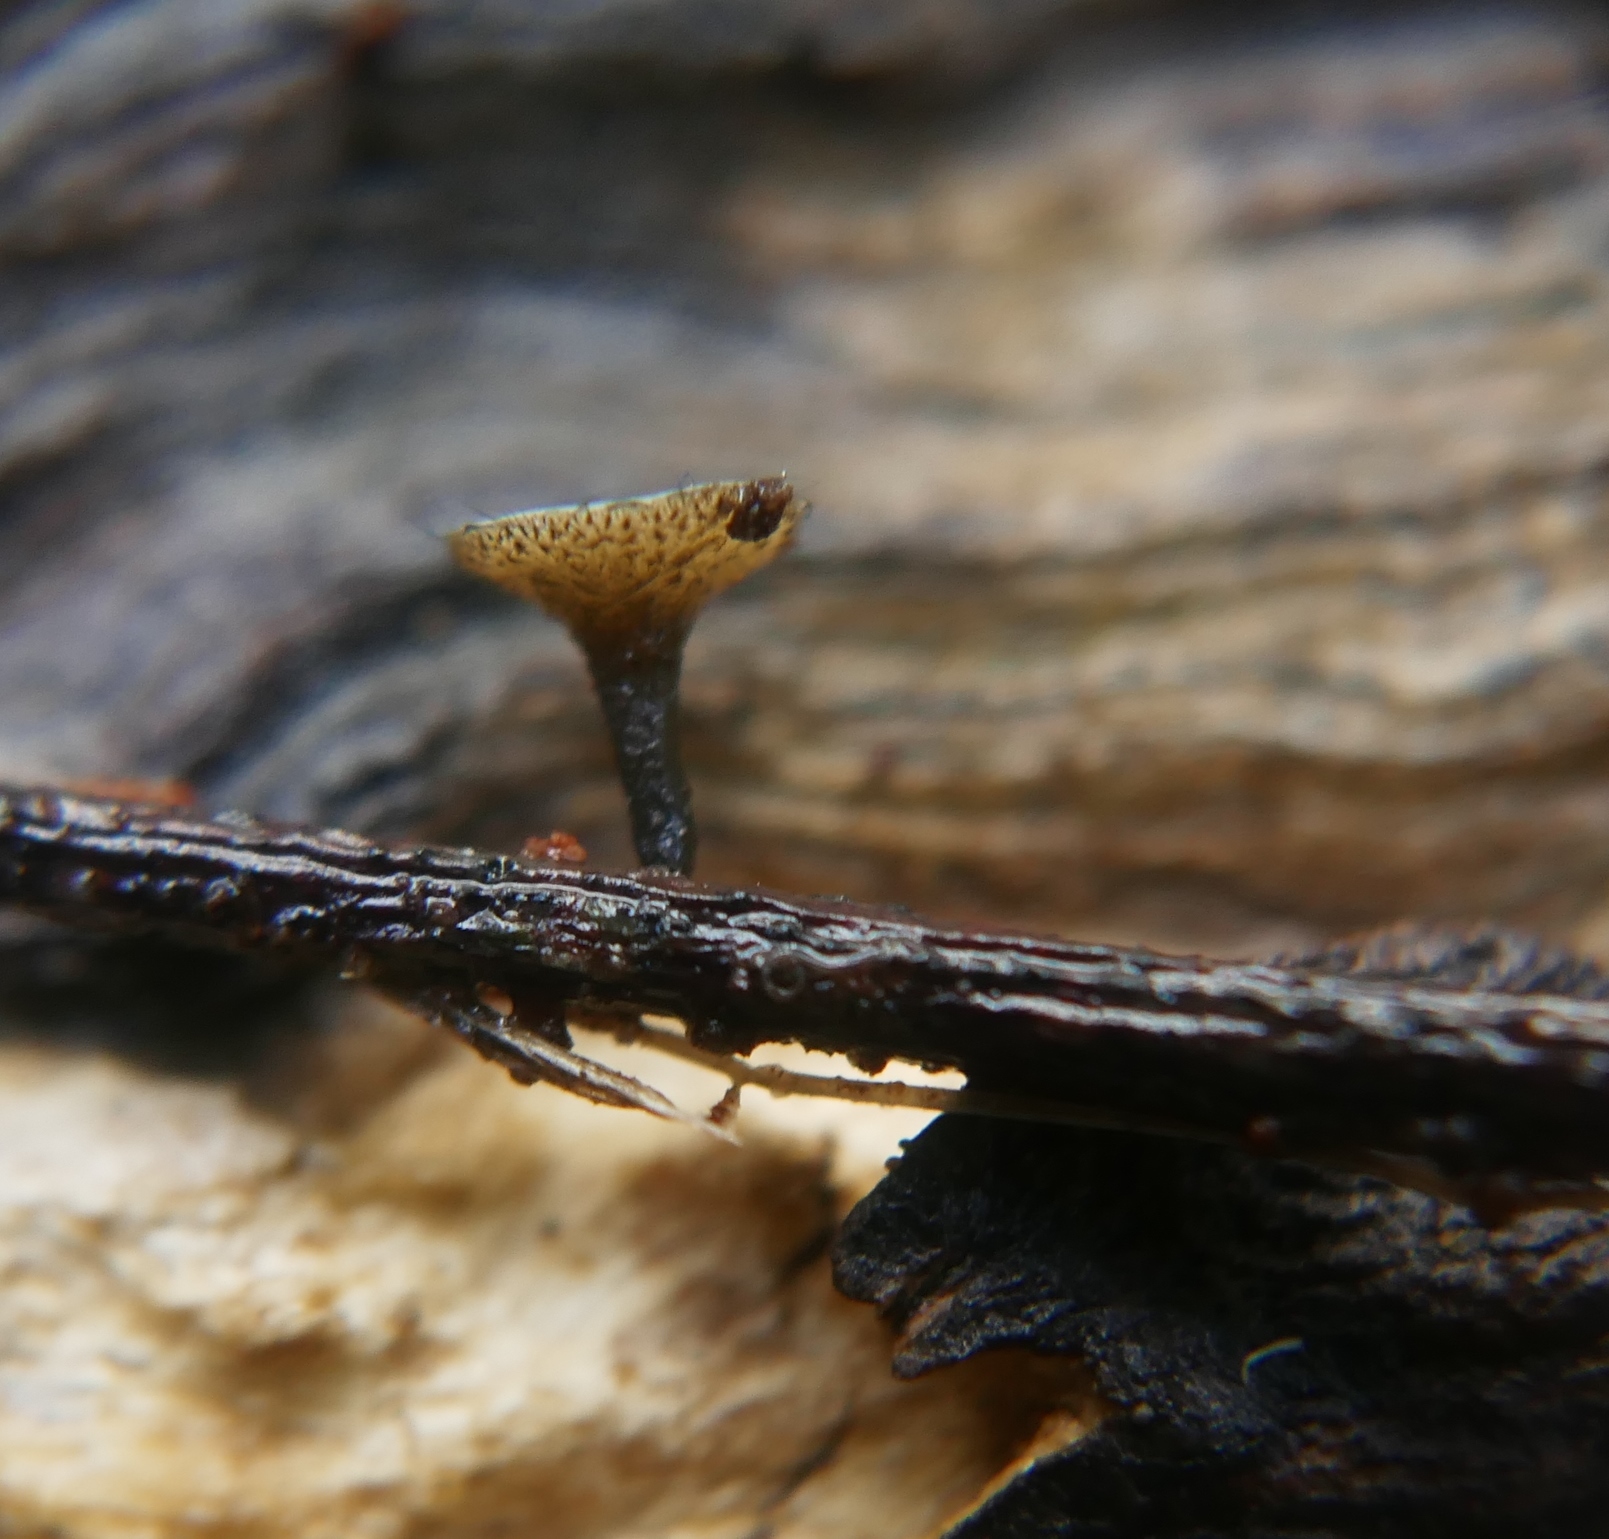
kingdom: Fungi
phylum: Ascomycota
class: Leotiomycetes
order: Helotiales
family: Helotiaceae
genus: Hymenotorrendiella
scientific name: Hymenotorrendiella clelandii
